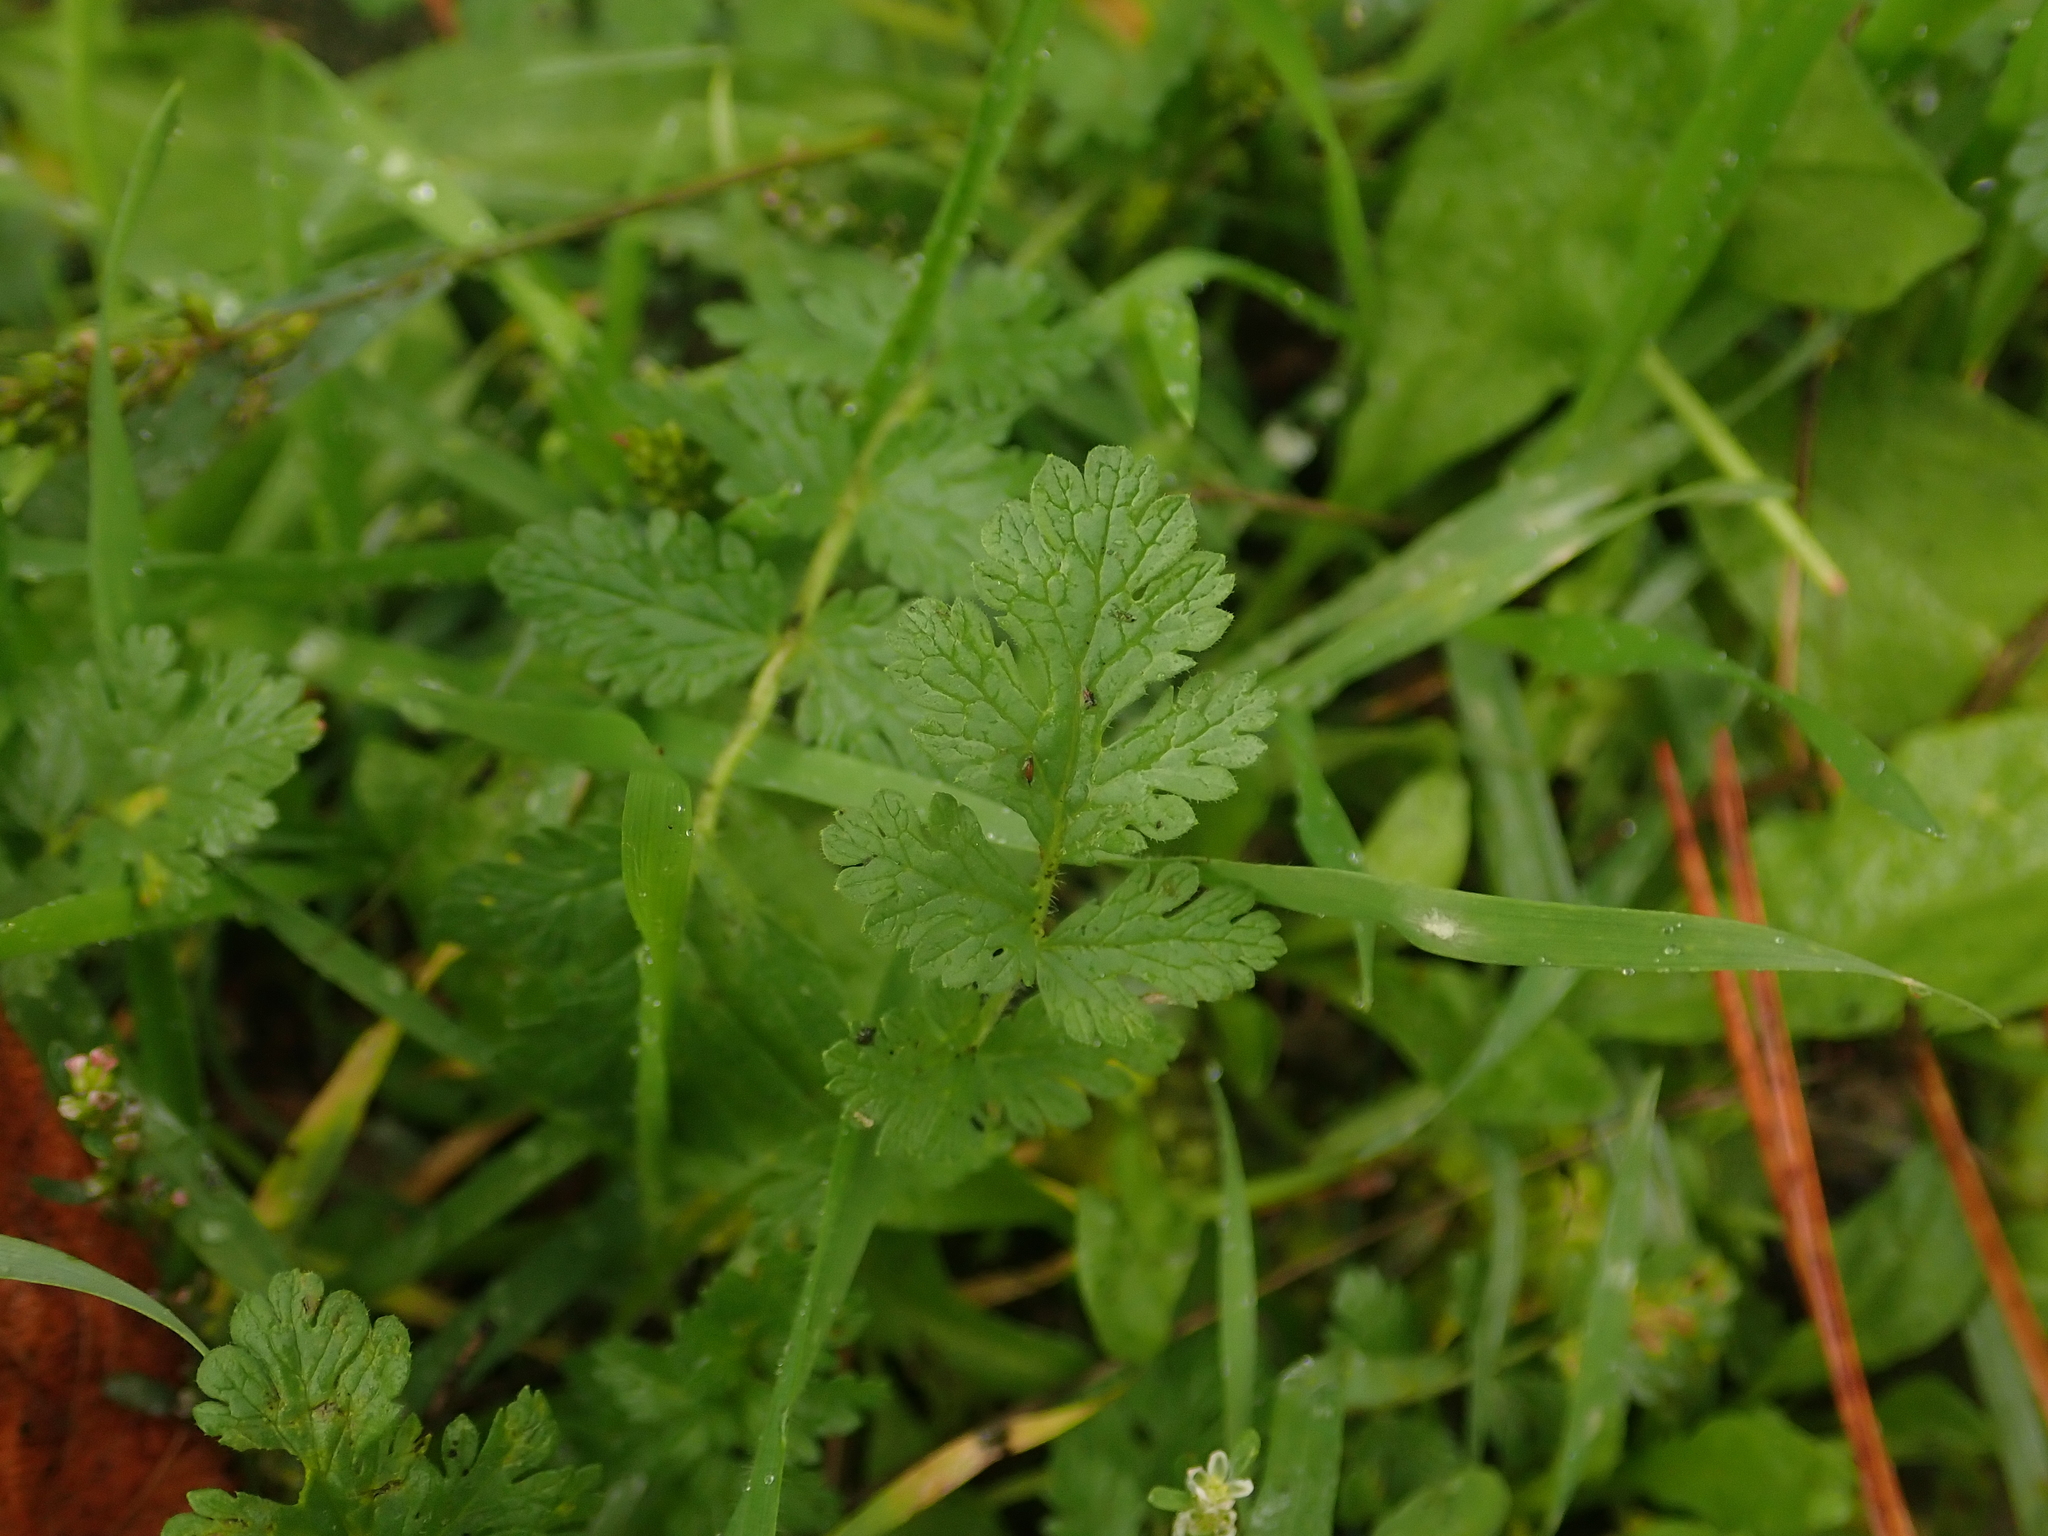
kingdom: Plantae
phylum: Tracheophyta
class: Magnoliopsida
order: Geraniales
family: Geraniaceae
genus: Erodium
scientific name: Erodium cicutarium
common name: Common stork's-bill
